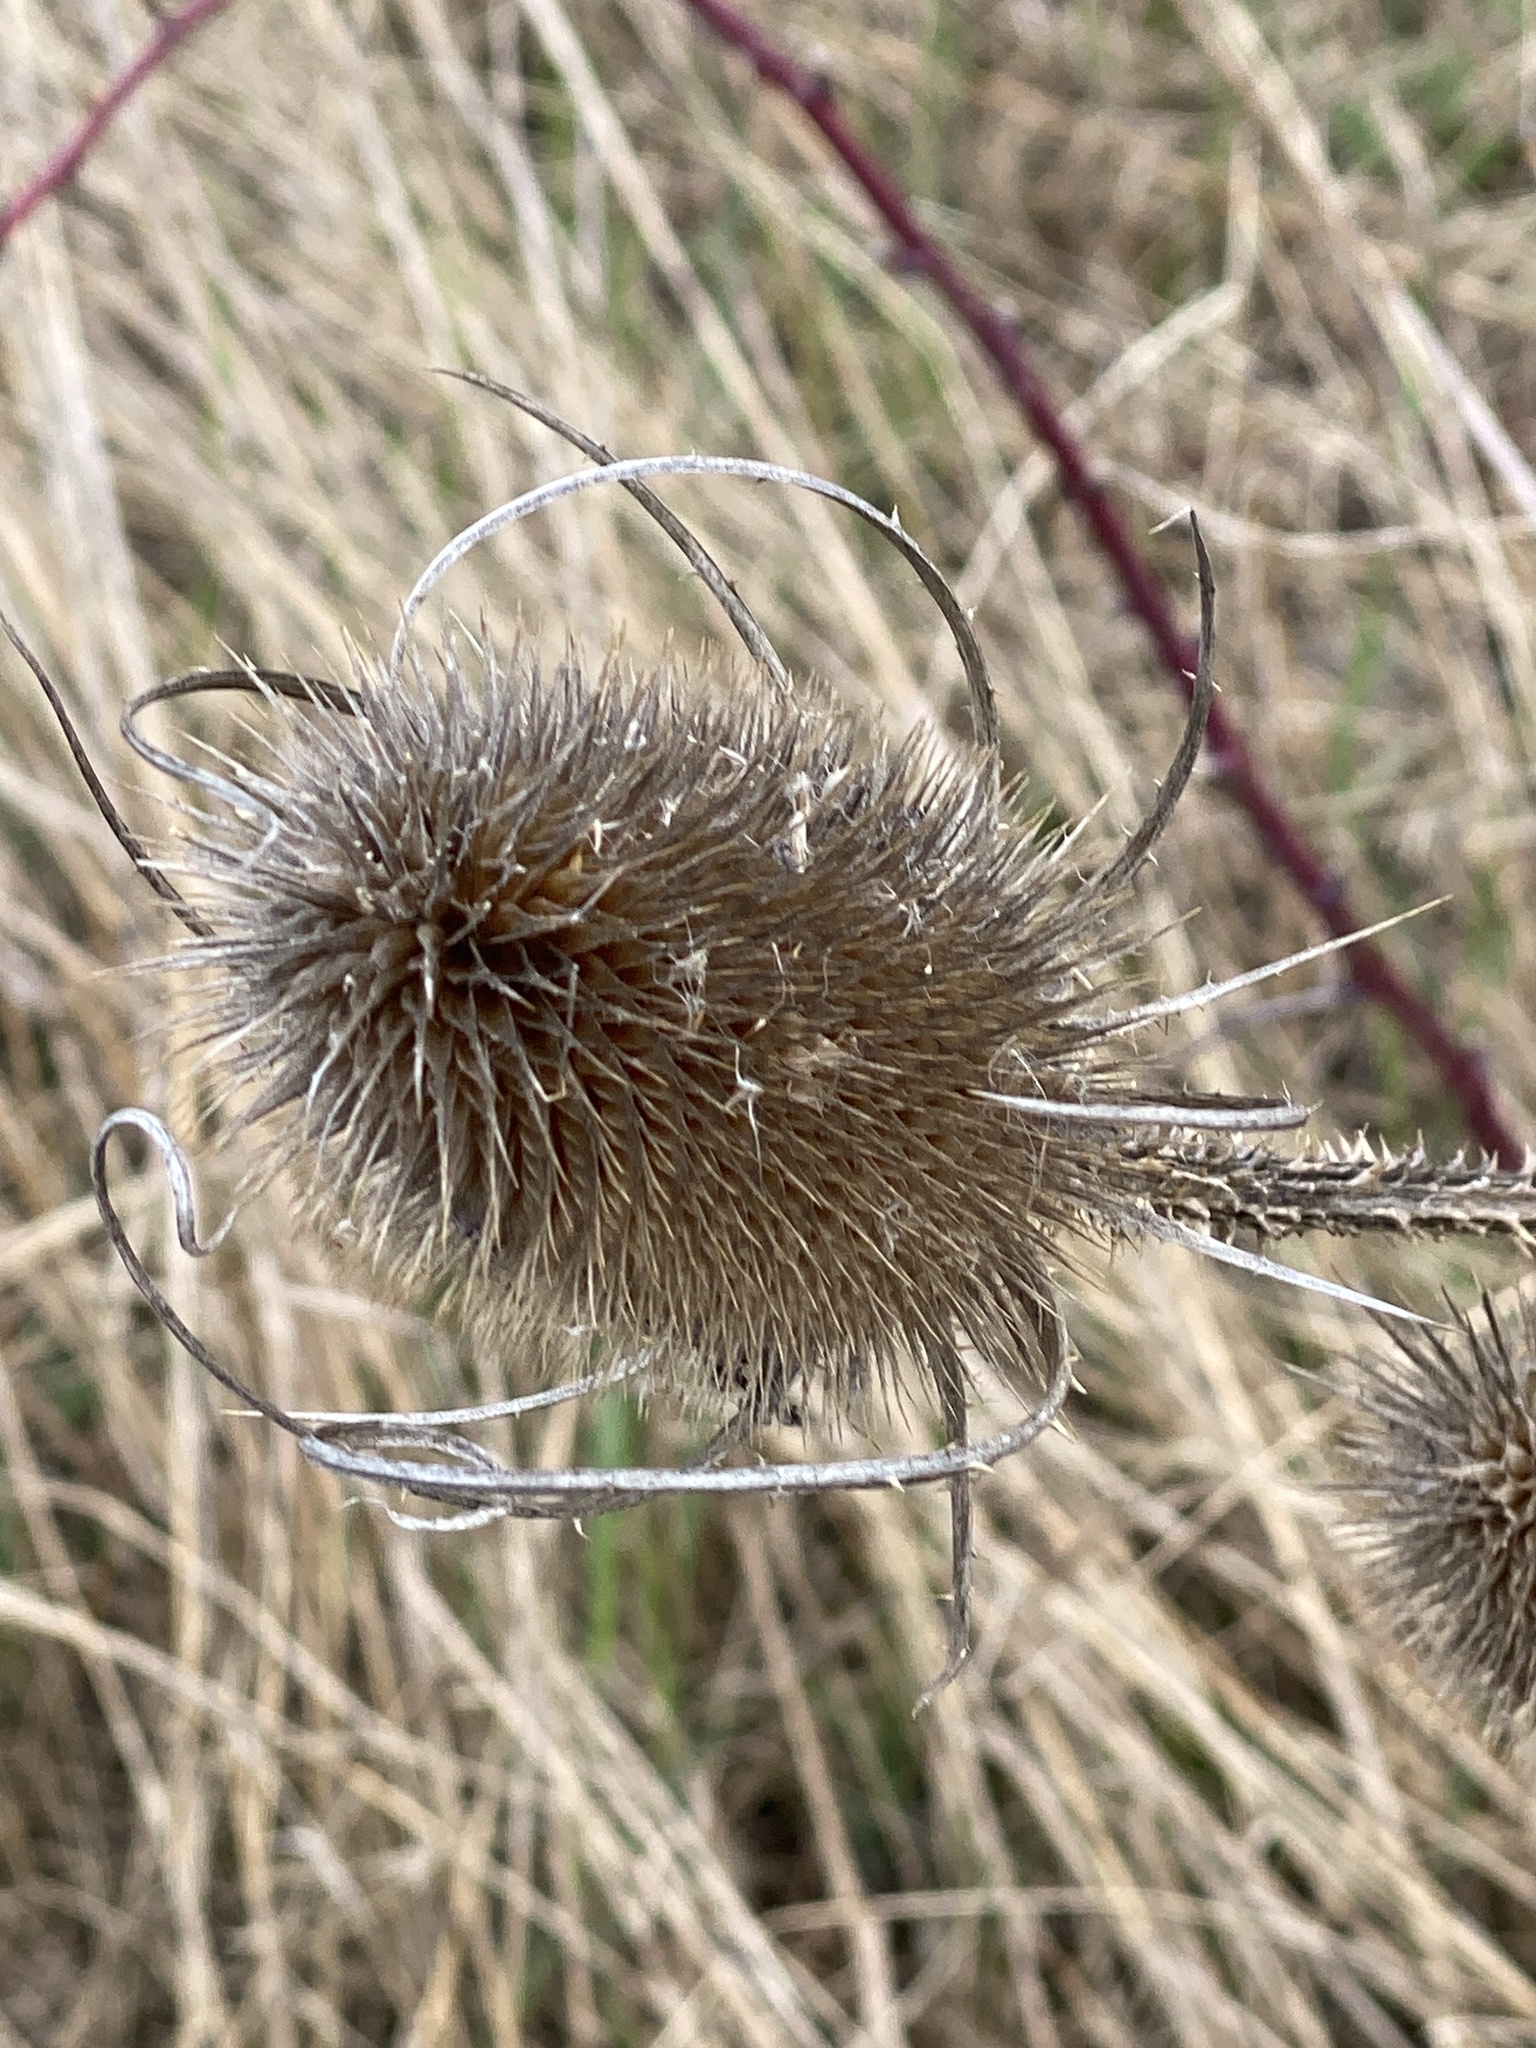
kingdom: Plantae
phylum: Tracheophyta
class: Magnoliopsida
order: Dipsacales
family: Caprifoliaceae
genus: Dipsacus
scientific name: Dipsacus fullonum
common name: Teasel
